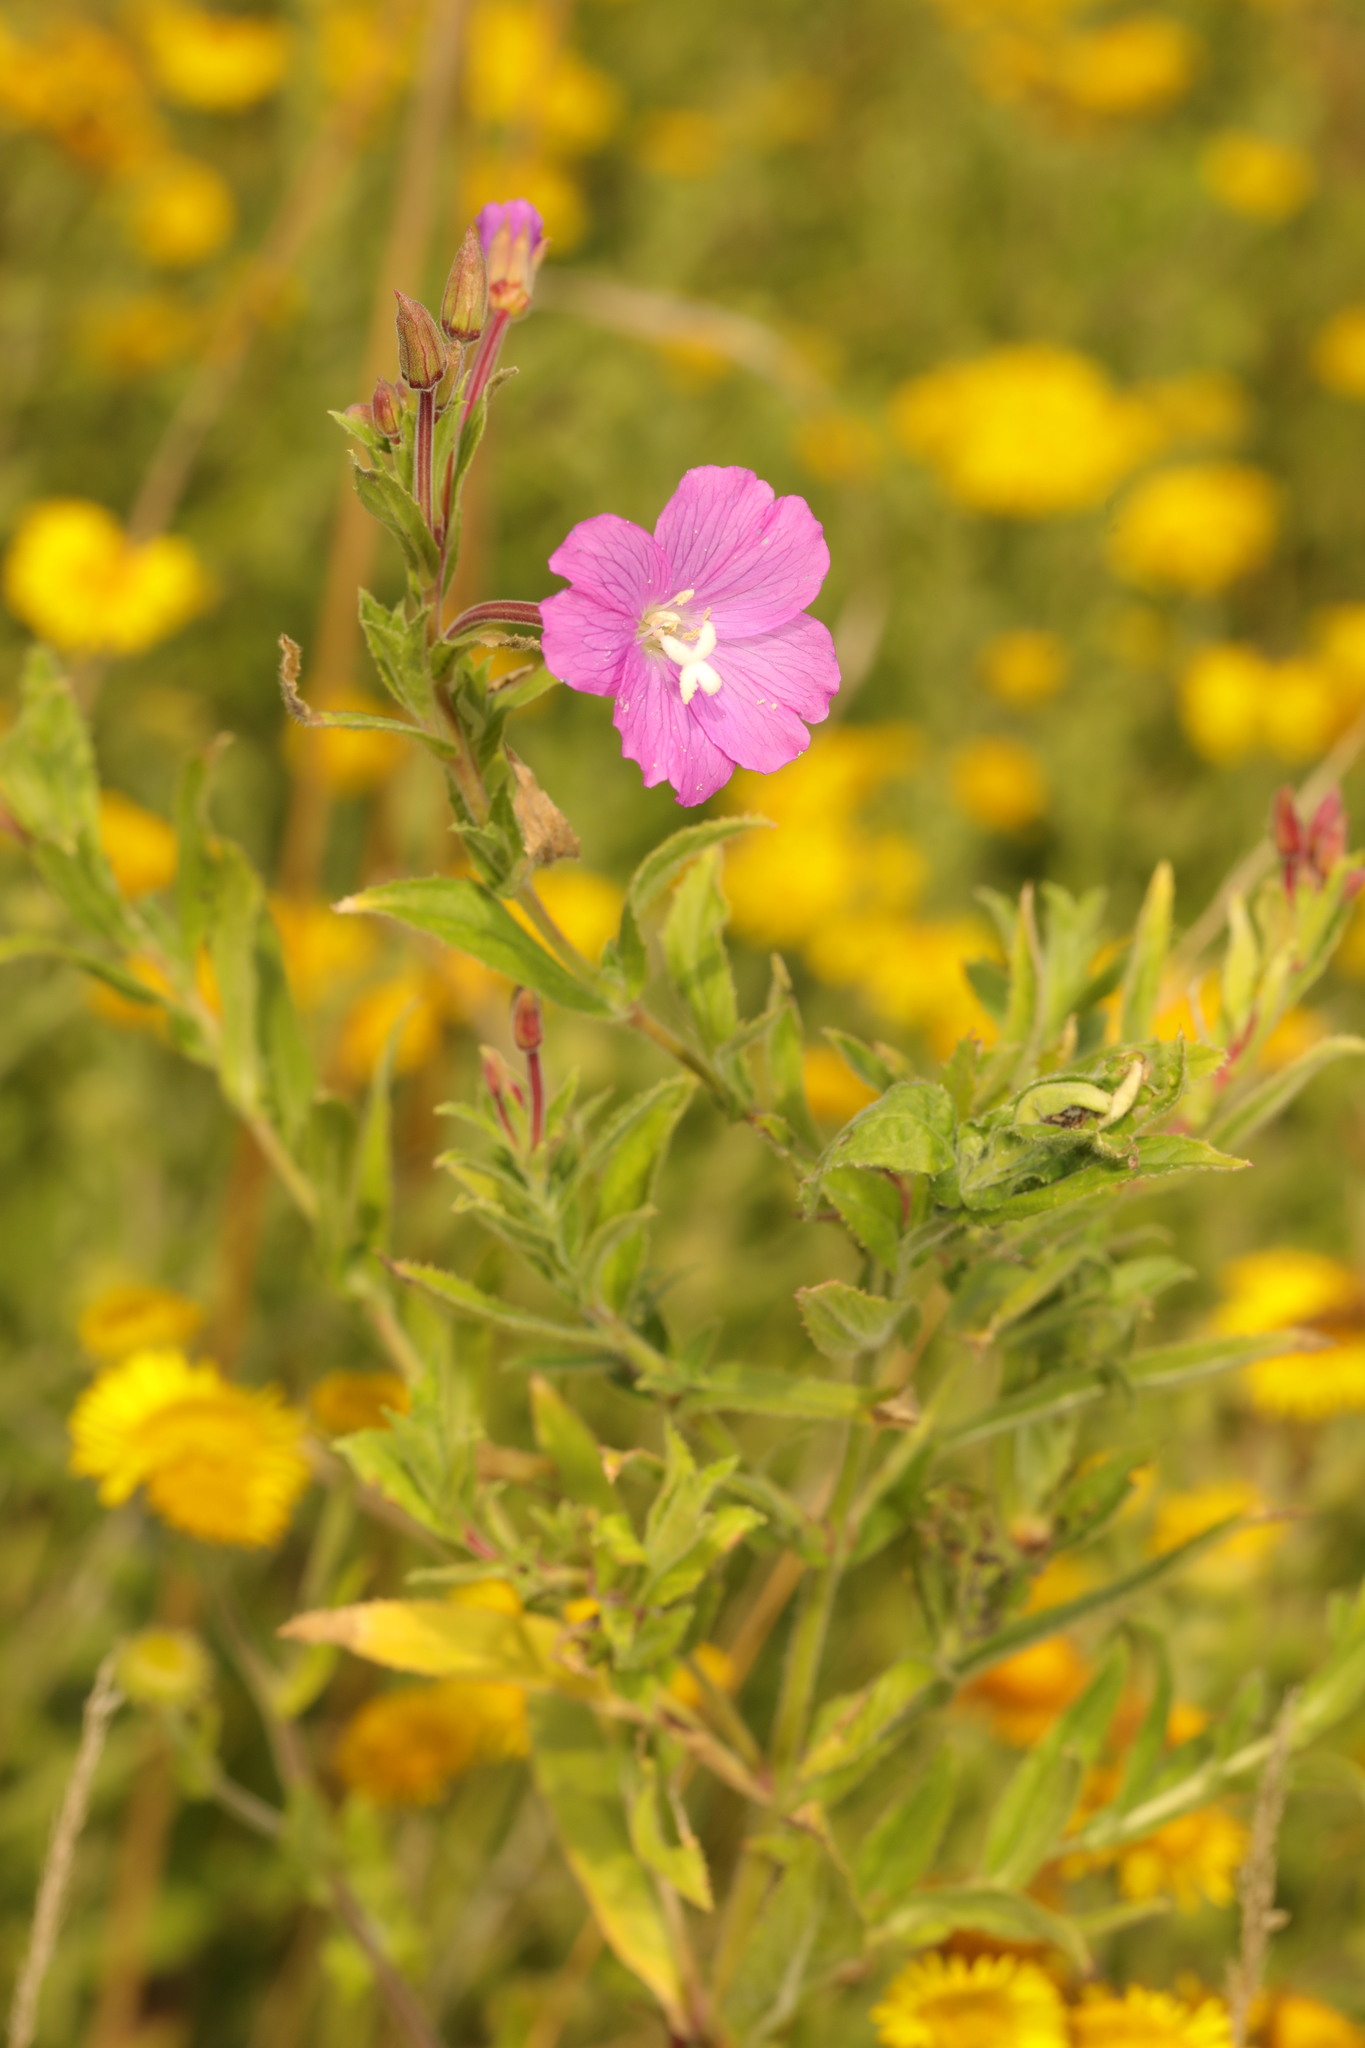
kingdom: Plantae
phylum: Tracheophyta
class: Magnoliopsida
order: Myrtales
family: Onagraceae
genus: Epilobium
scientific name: Epilobium hirsutum
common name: Great willowherb
